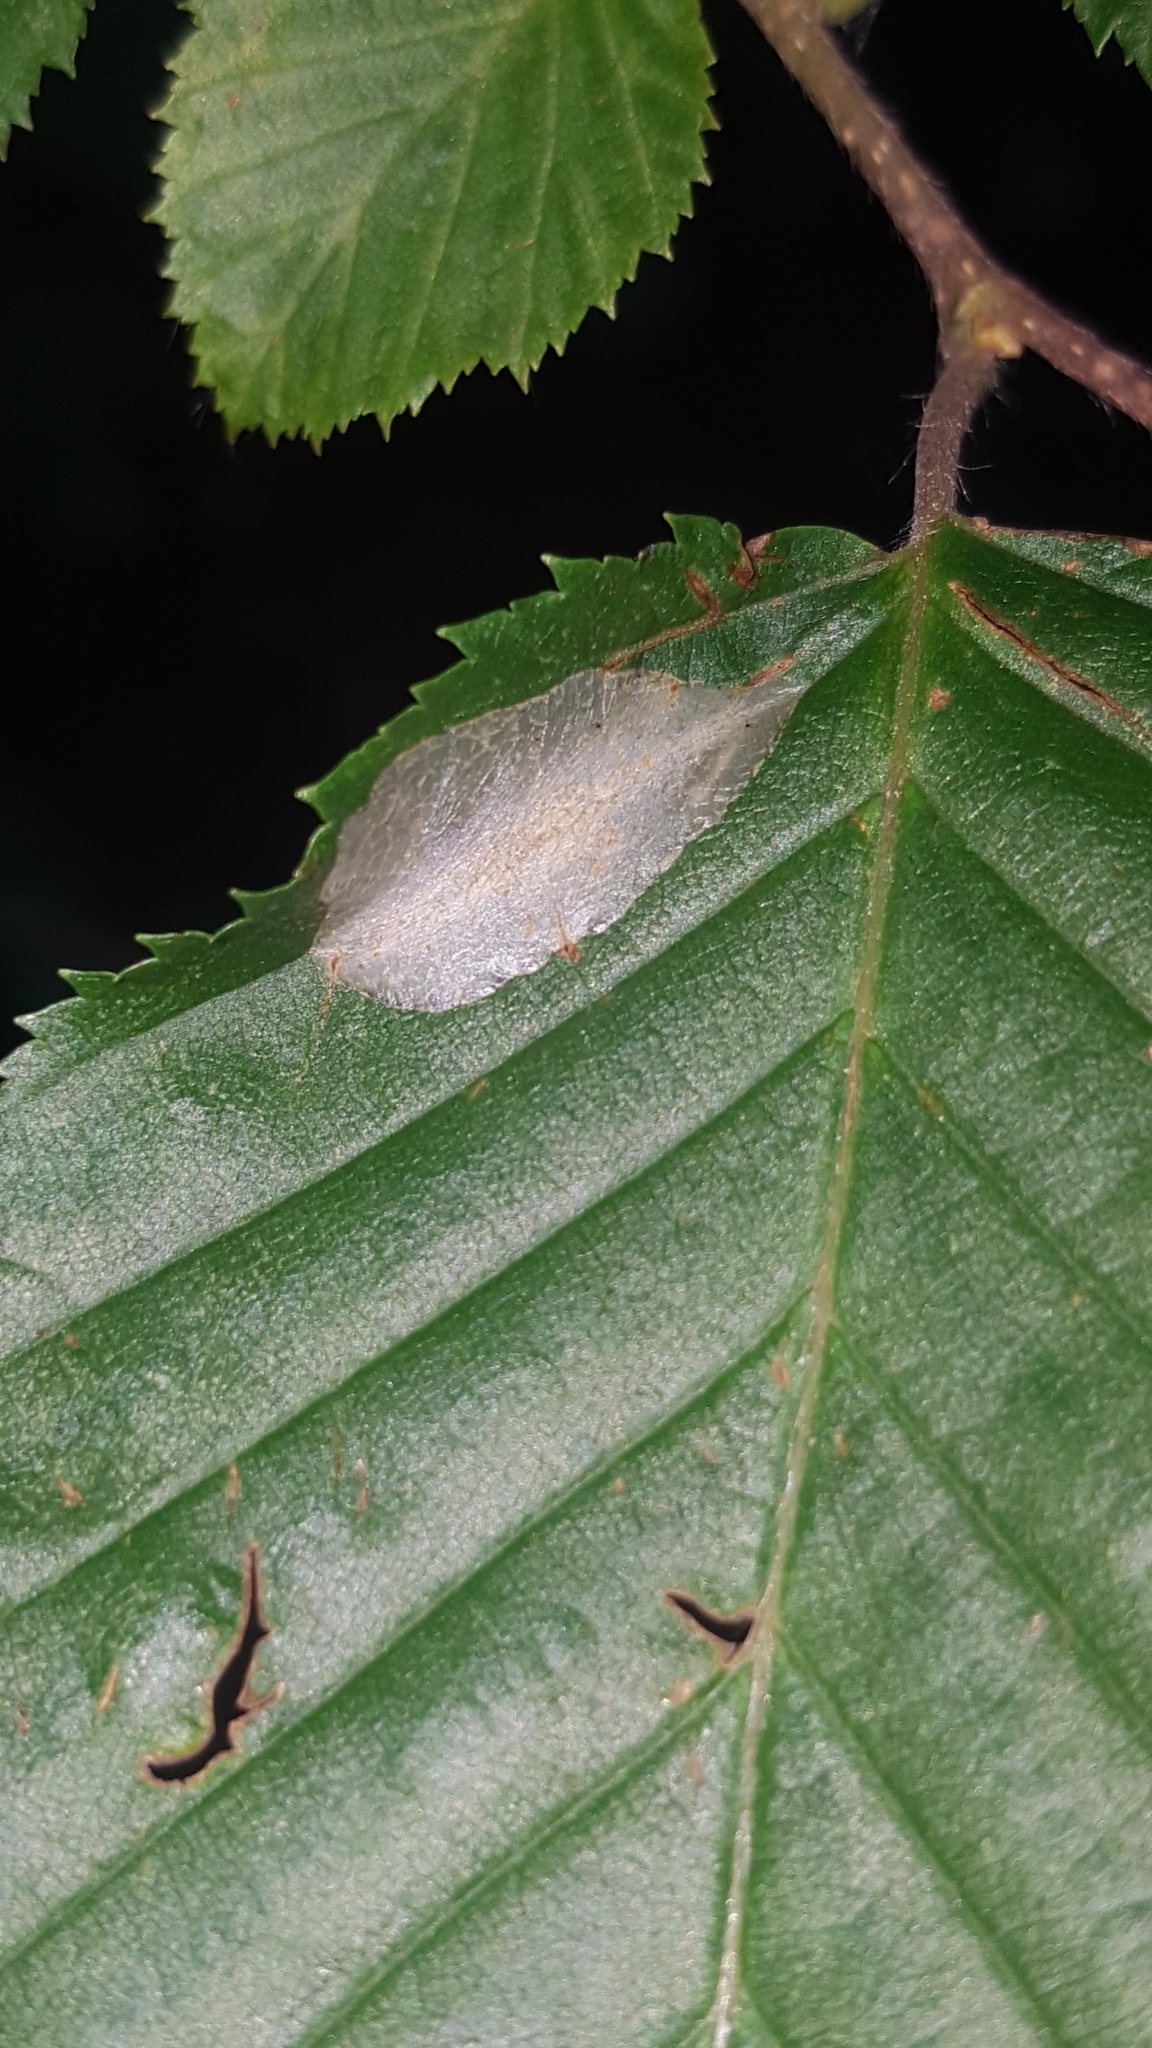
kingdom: Animalia
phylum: Arthropoda
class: Insecta
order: Lepidoptera
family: Gracillariidae
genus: Phyllonorycter
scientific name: Phyllonorycter esperella
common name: Dark hornbeam midget
